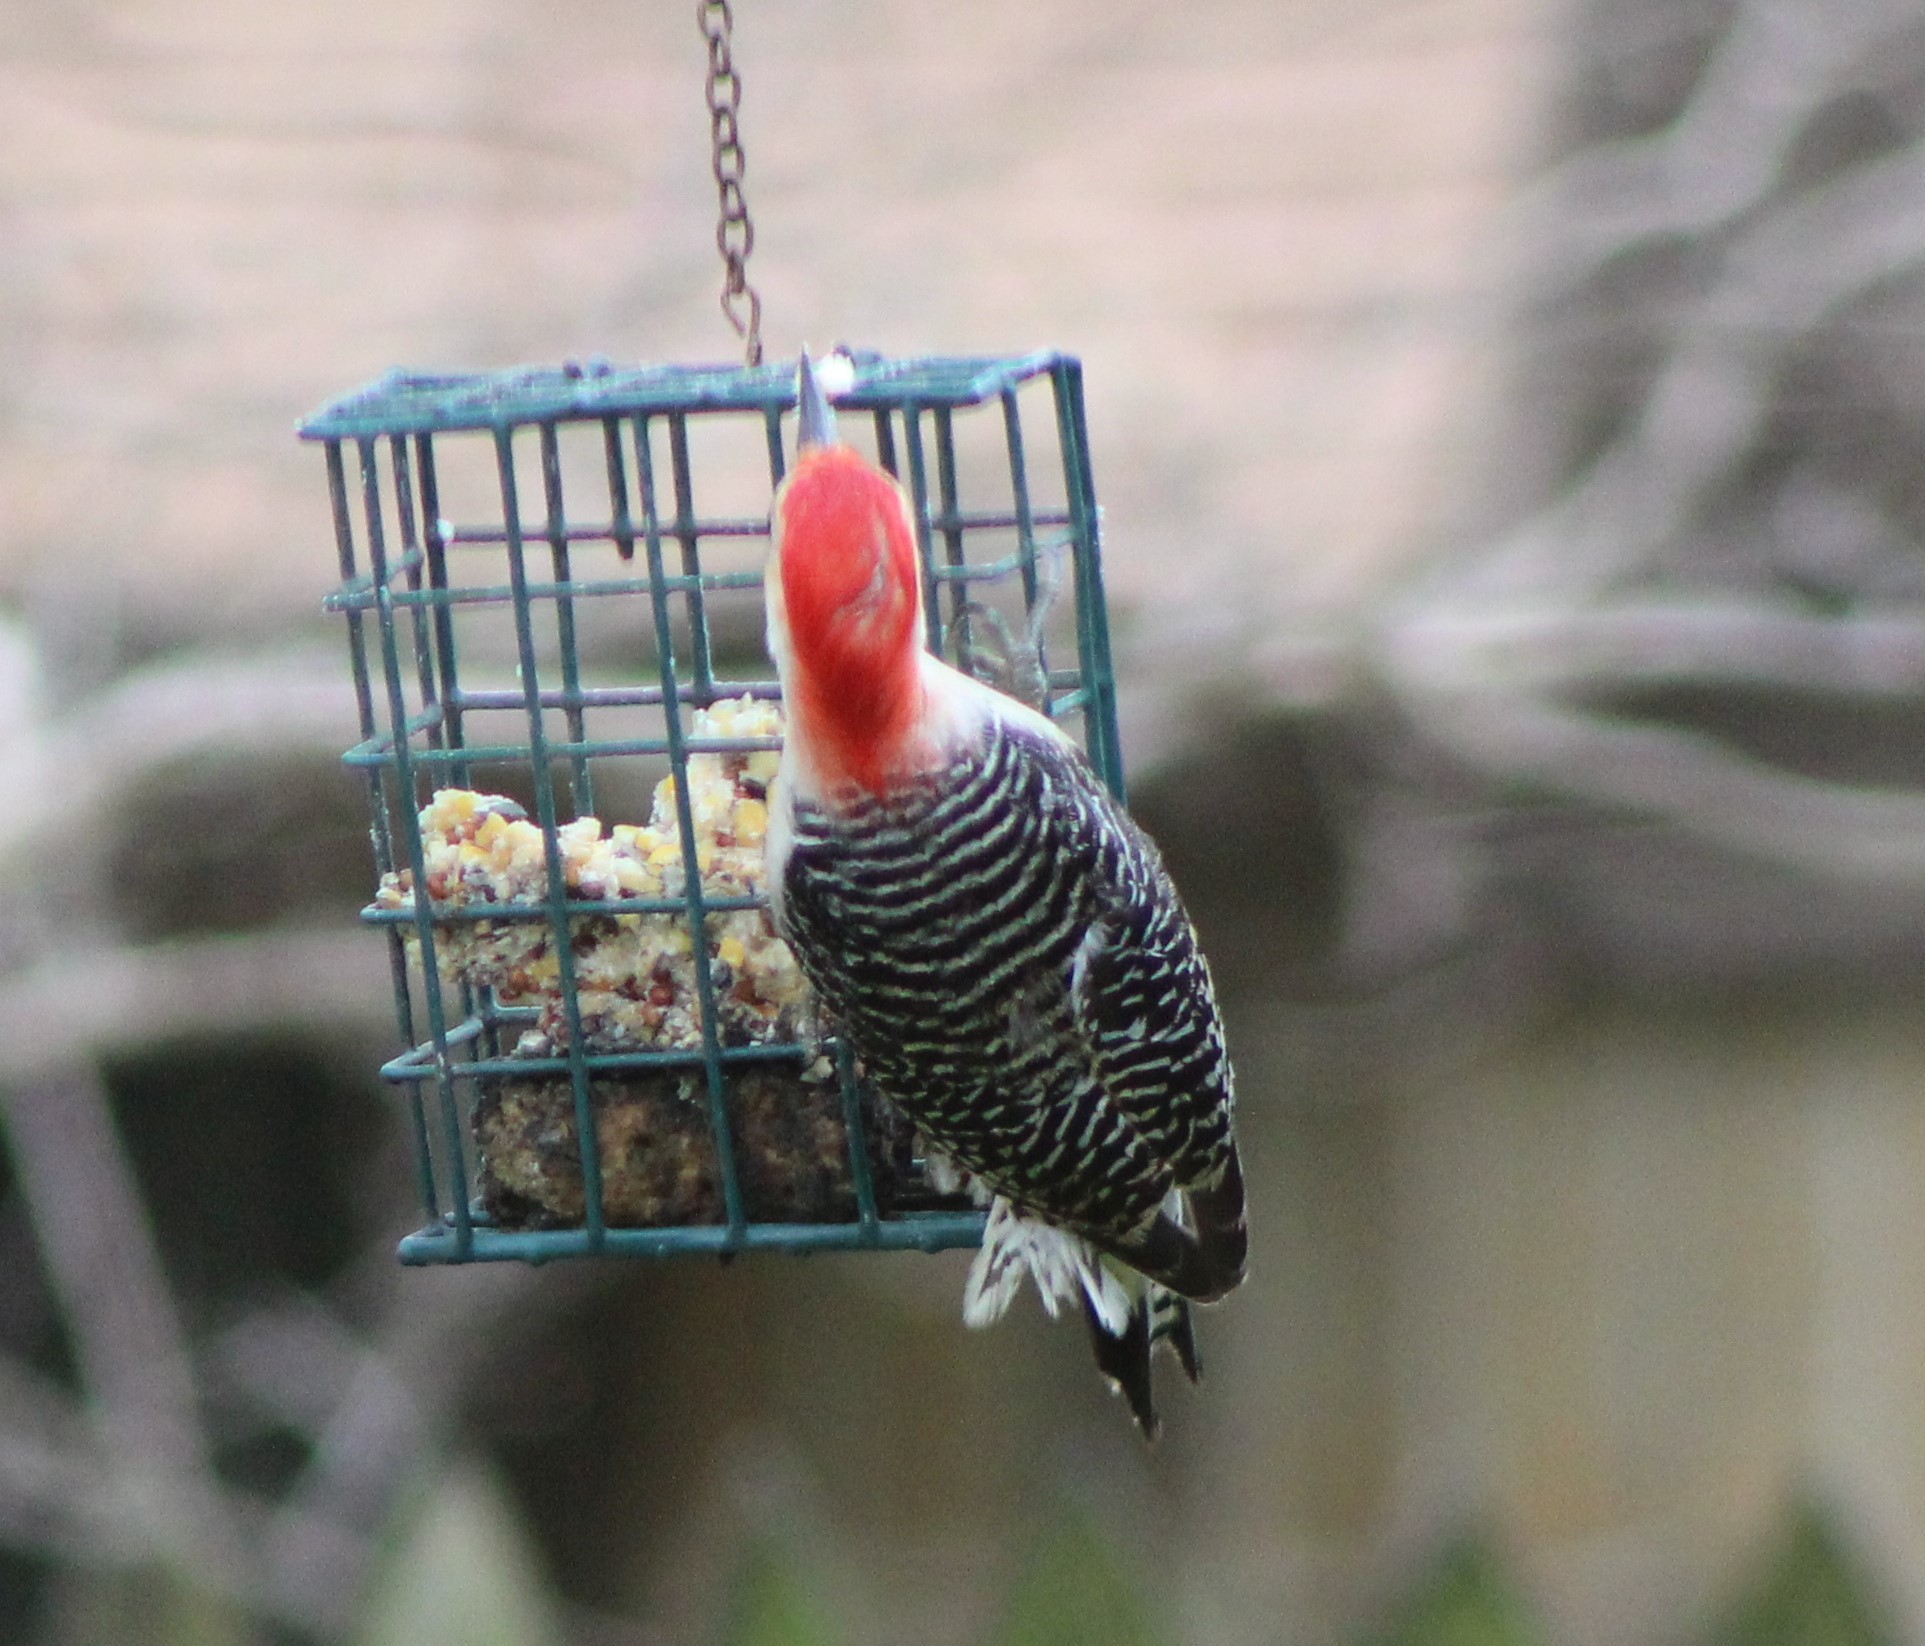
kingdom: Animalia
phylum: Chordata
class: Aves
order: Piciformes
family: Picidae
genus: Melanerpes
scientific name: Melanerpes carolinus
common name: Red-bellied woodpecker
